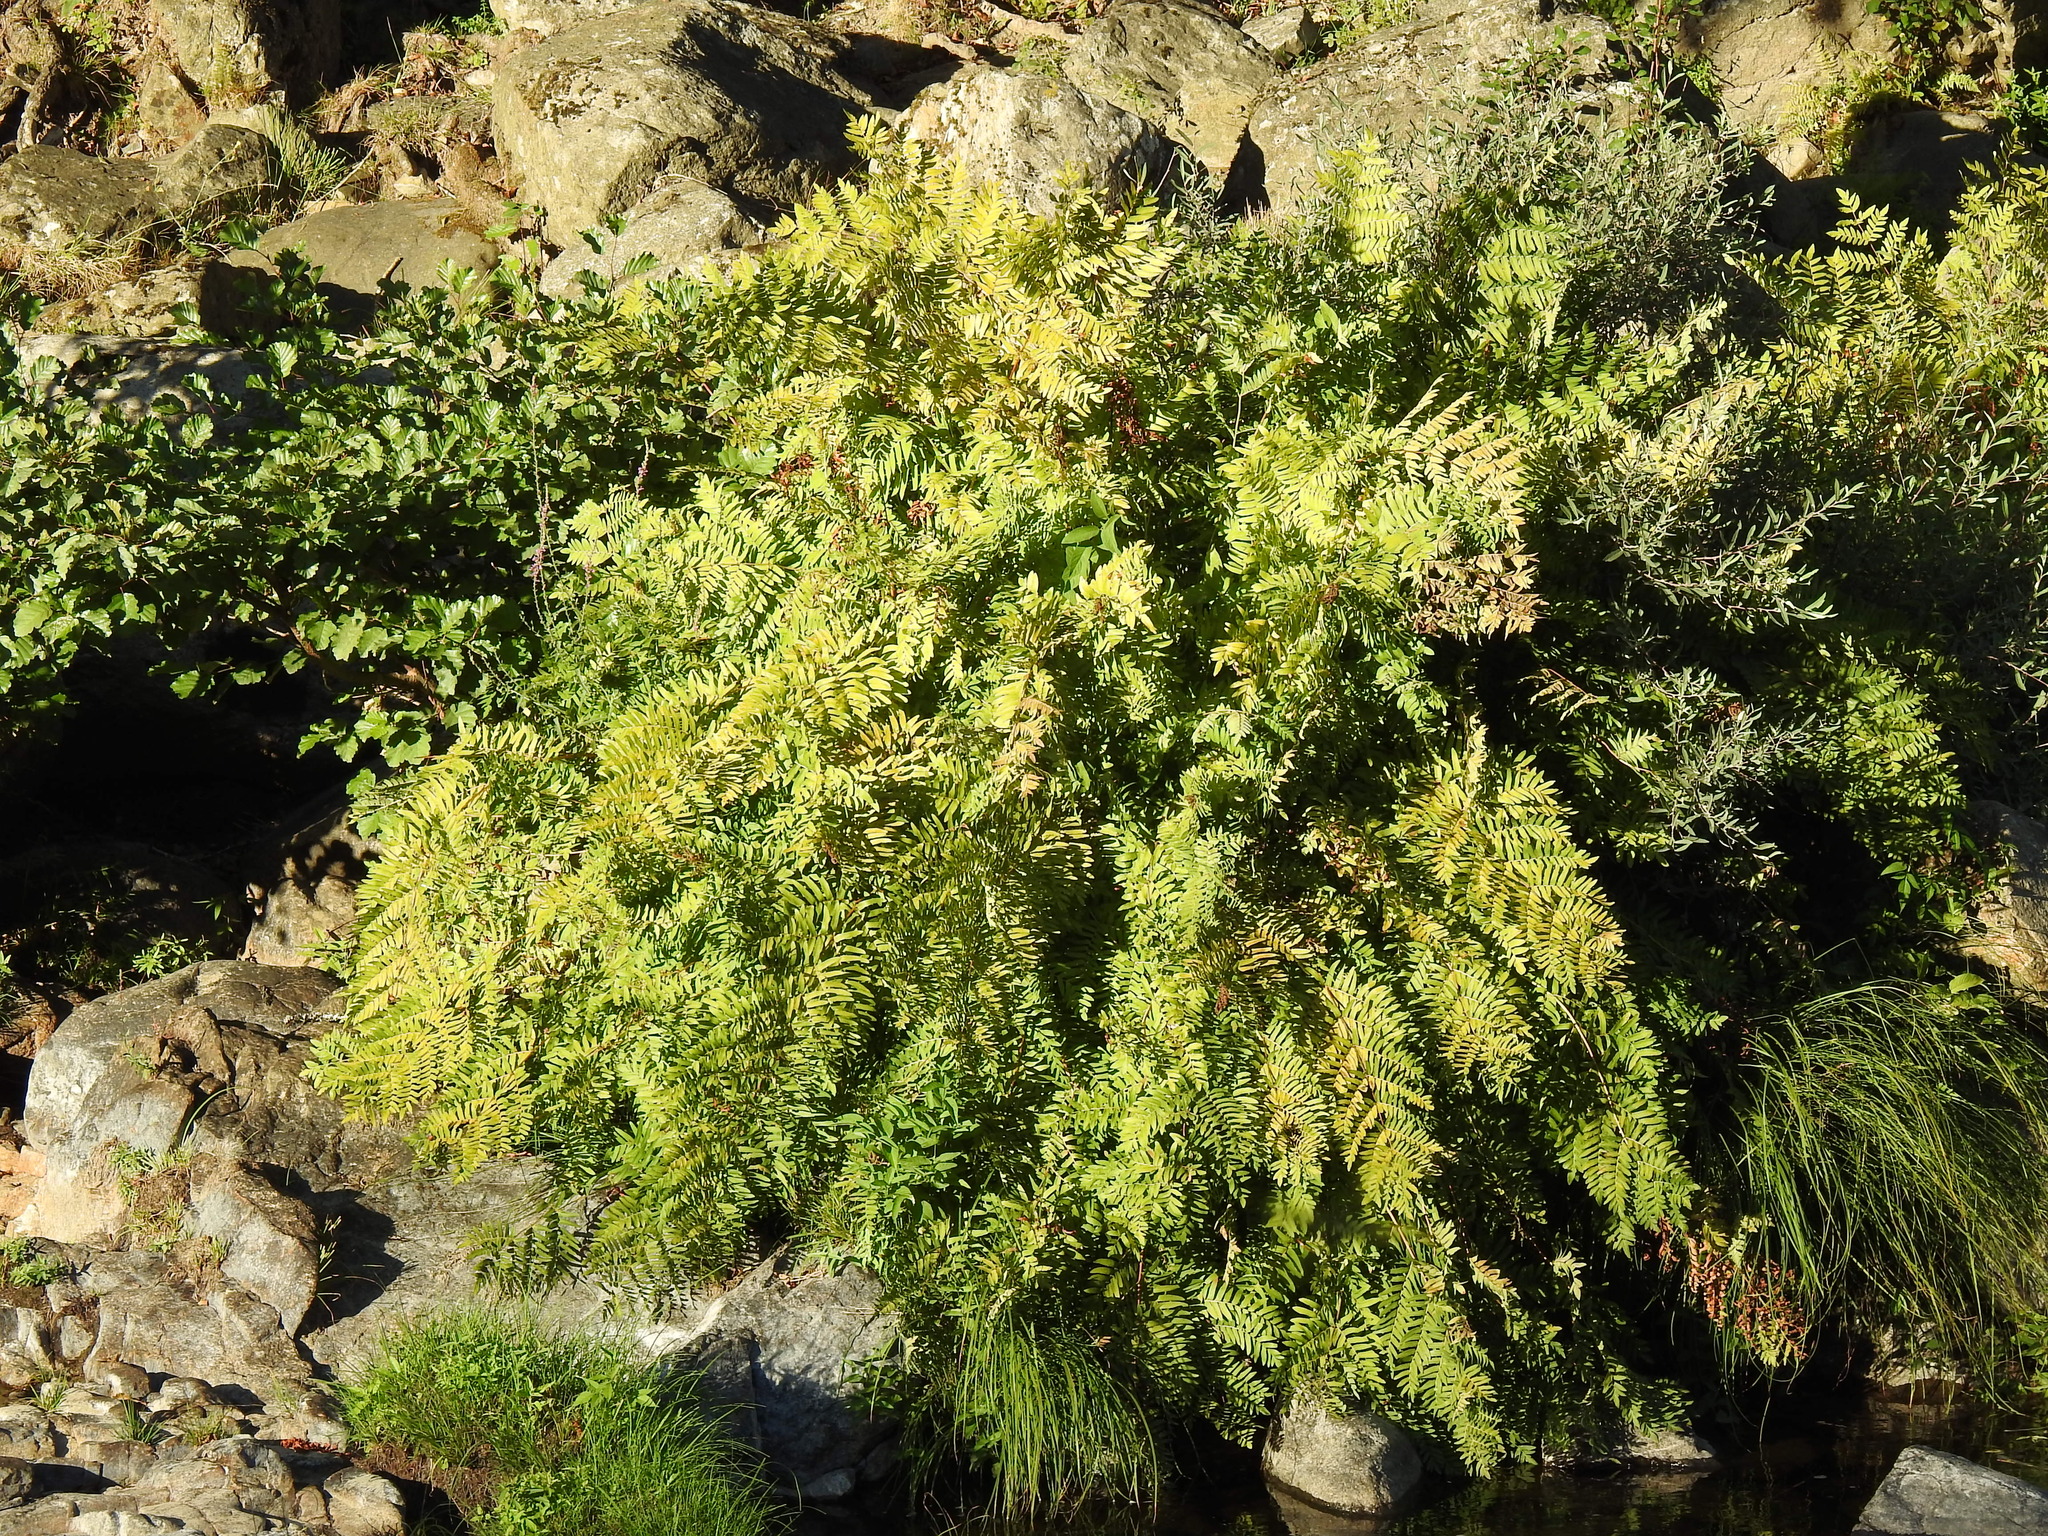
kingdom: Plantae
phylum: Tracheophyta
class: Polypodiopsida
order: Osmundales
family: Osmundaceae
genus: Osmunda
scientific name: Osmunda regalis
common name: Royal fern
